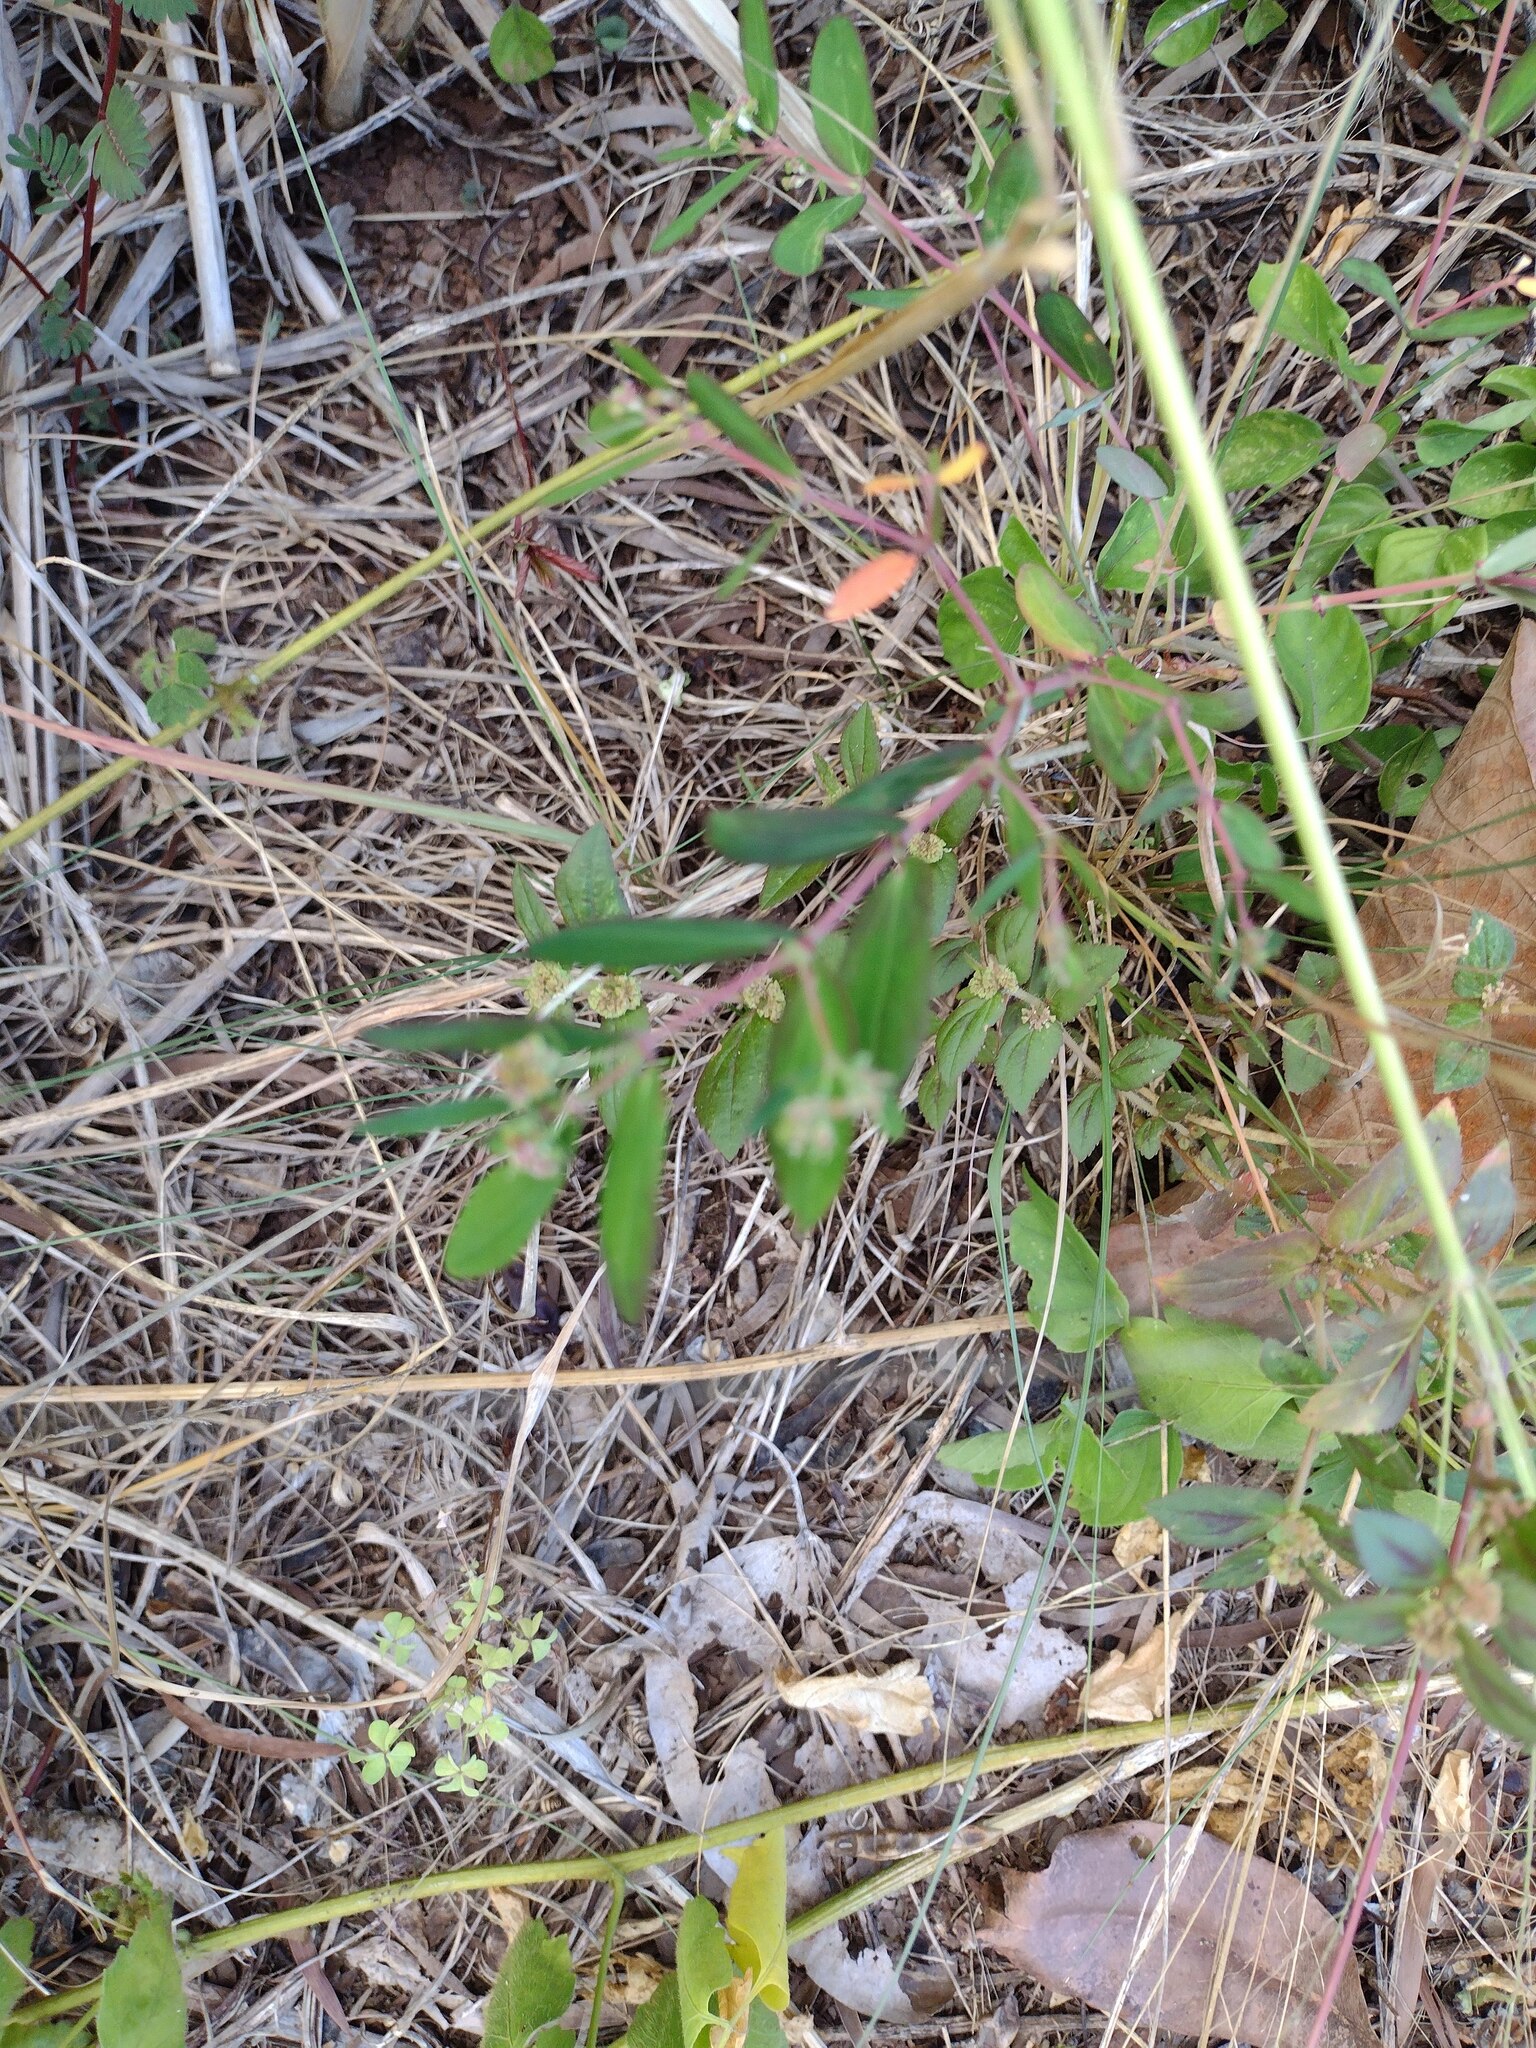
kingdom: Plantae
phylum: Tracheophyta
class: Magnoliopsida
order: Malpighiales
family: Euphorbiaceae
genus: Euphorbia
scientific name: Euphorbia hypericifolia
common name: Graceful sandmat
